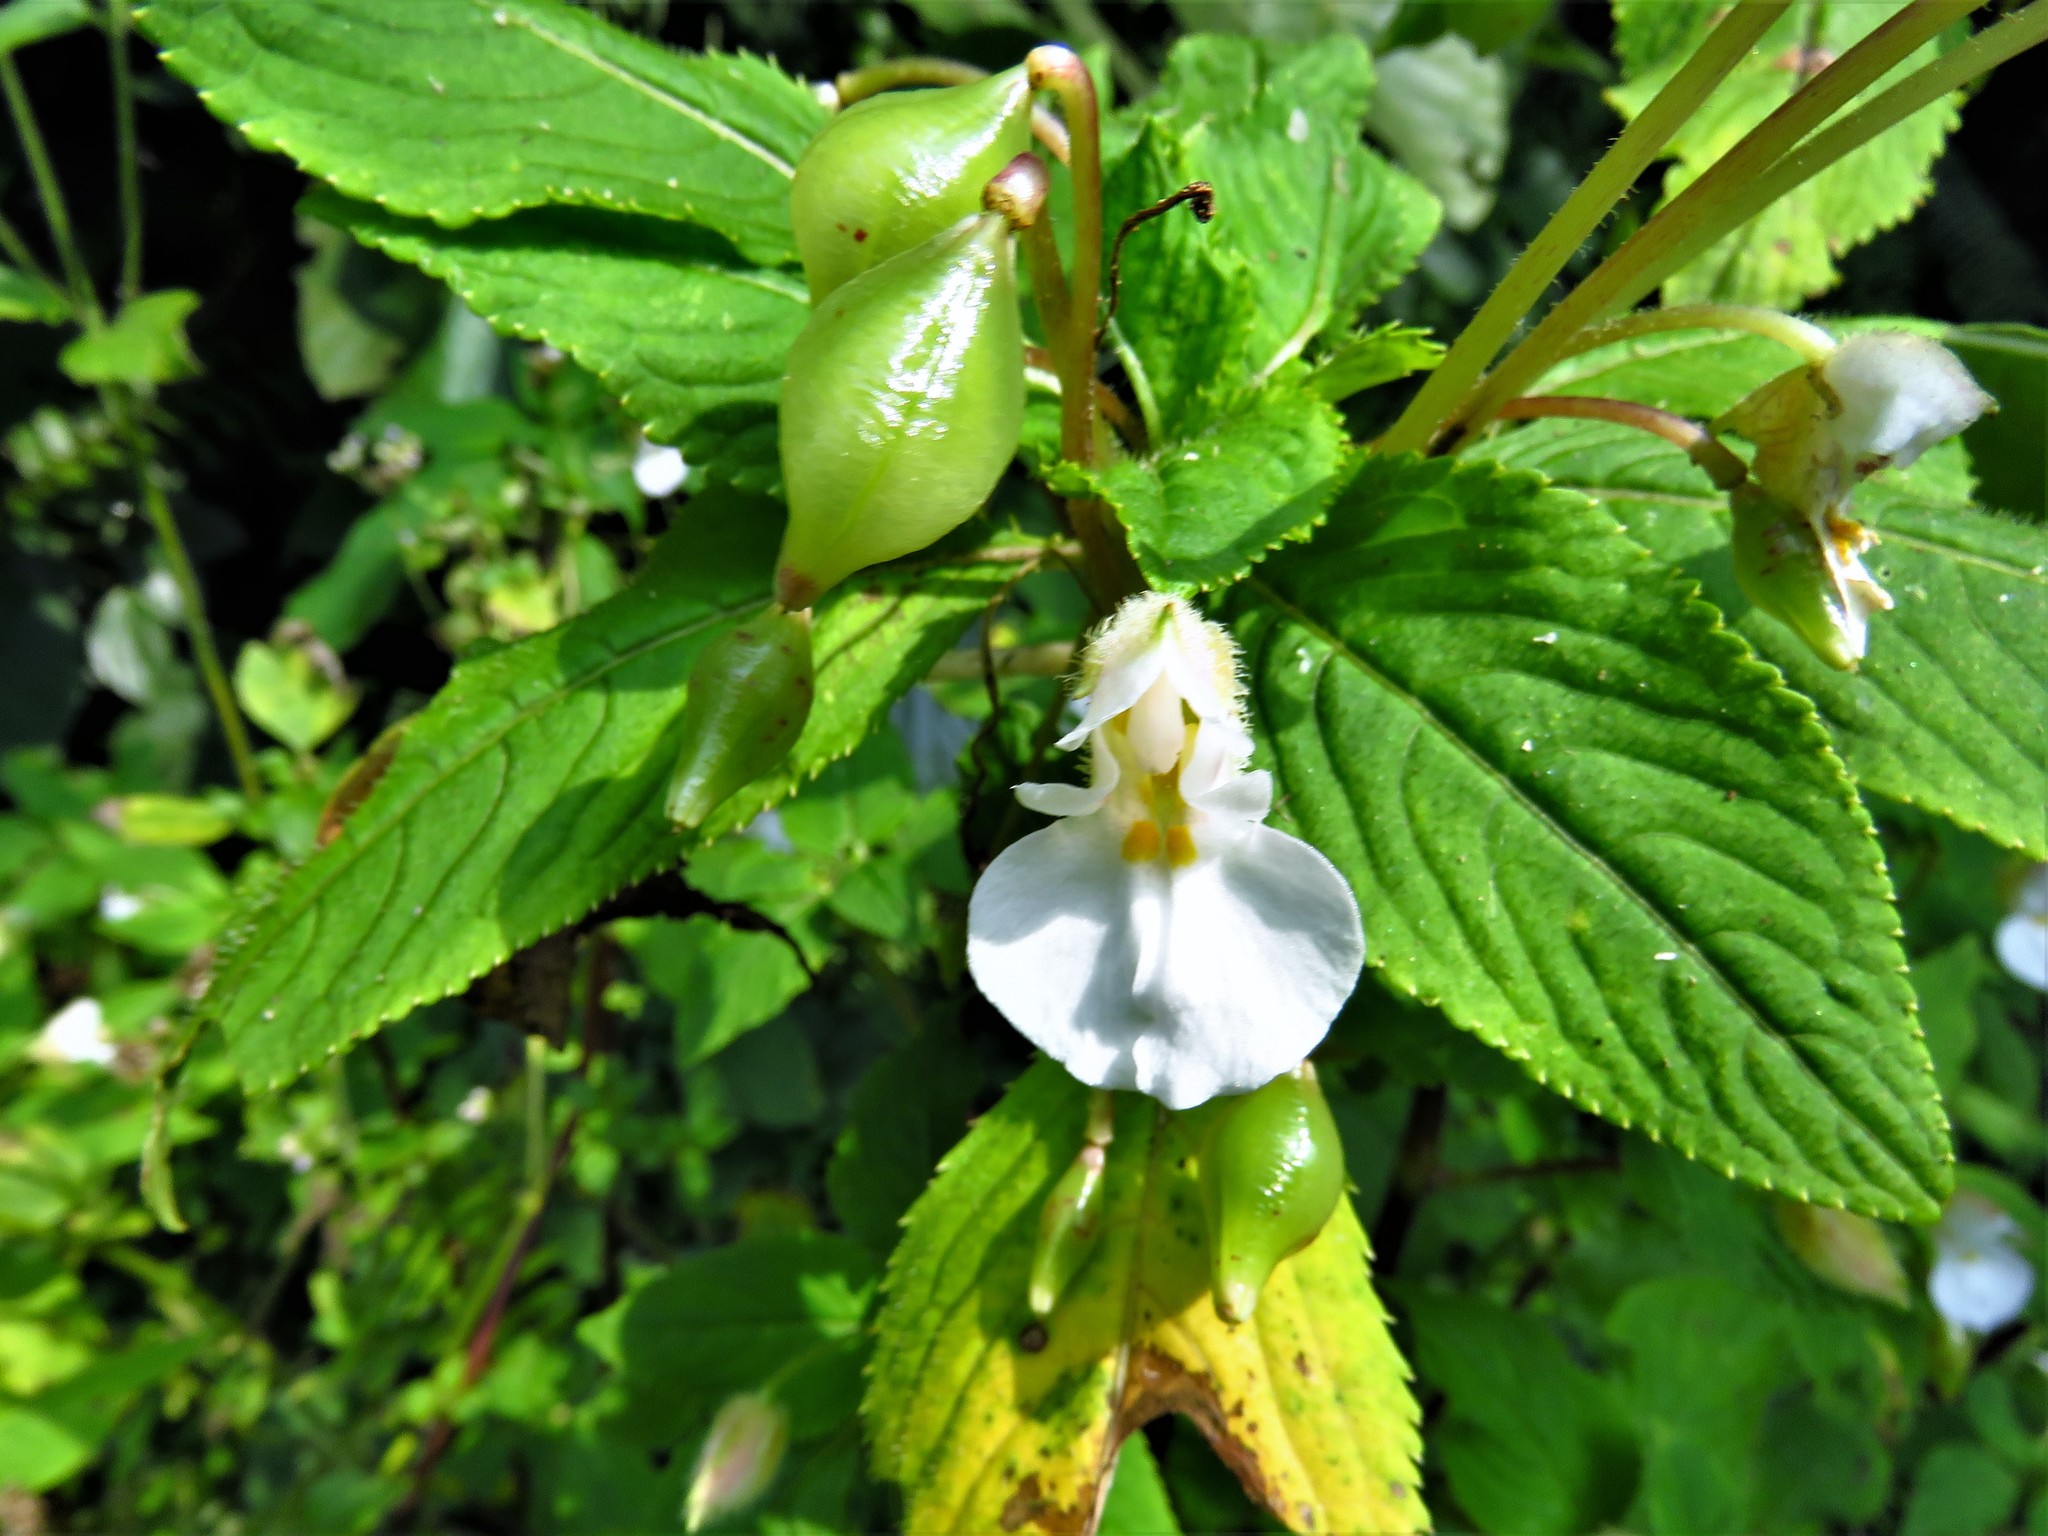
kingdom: Plantae
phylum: Tracheophyta
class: Magnoliopsida
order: Ericales
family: Balsaminaceae
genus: Impatiens
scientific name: Impatiens burtonii
